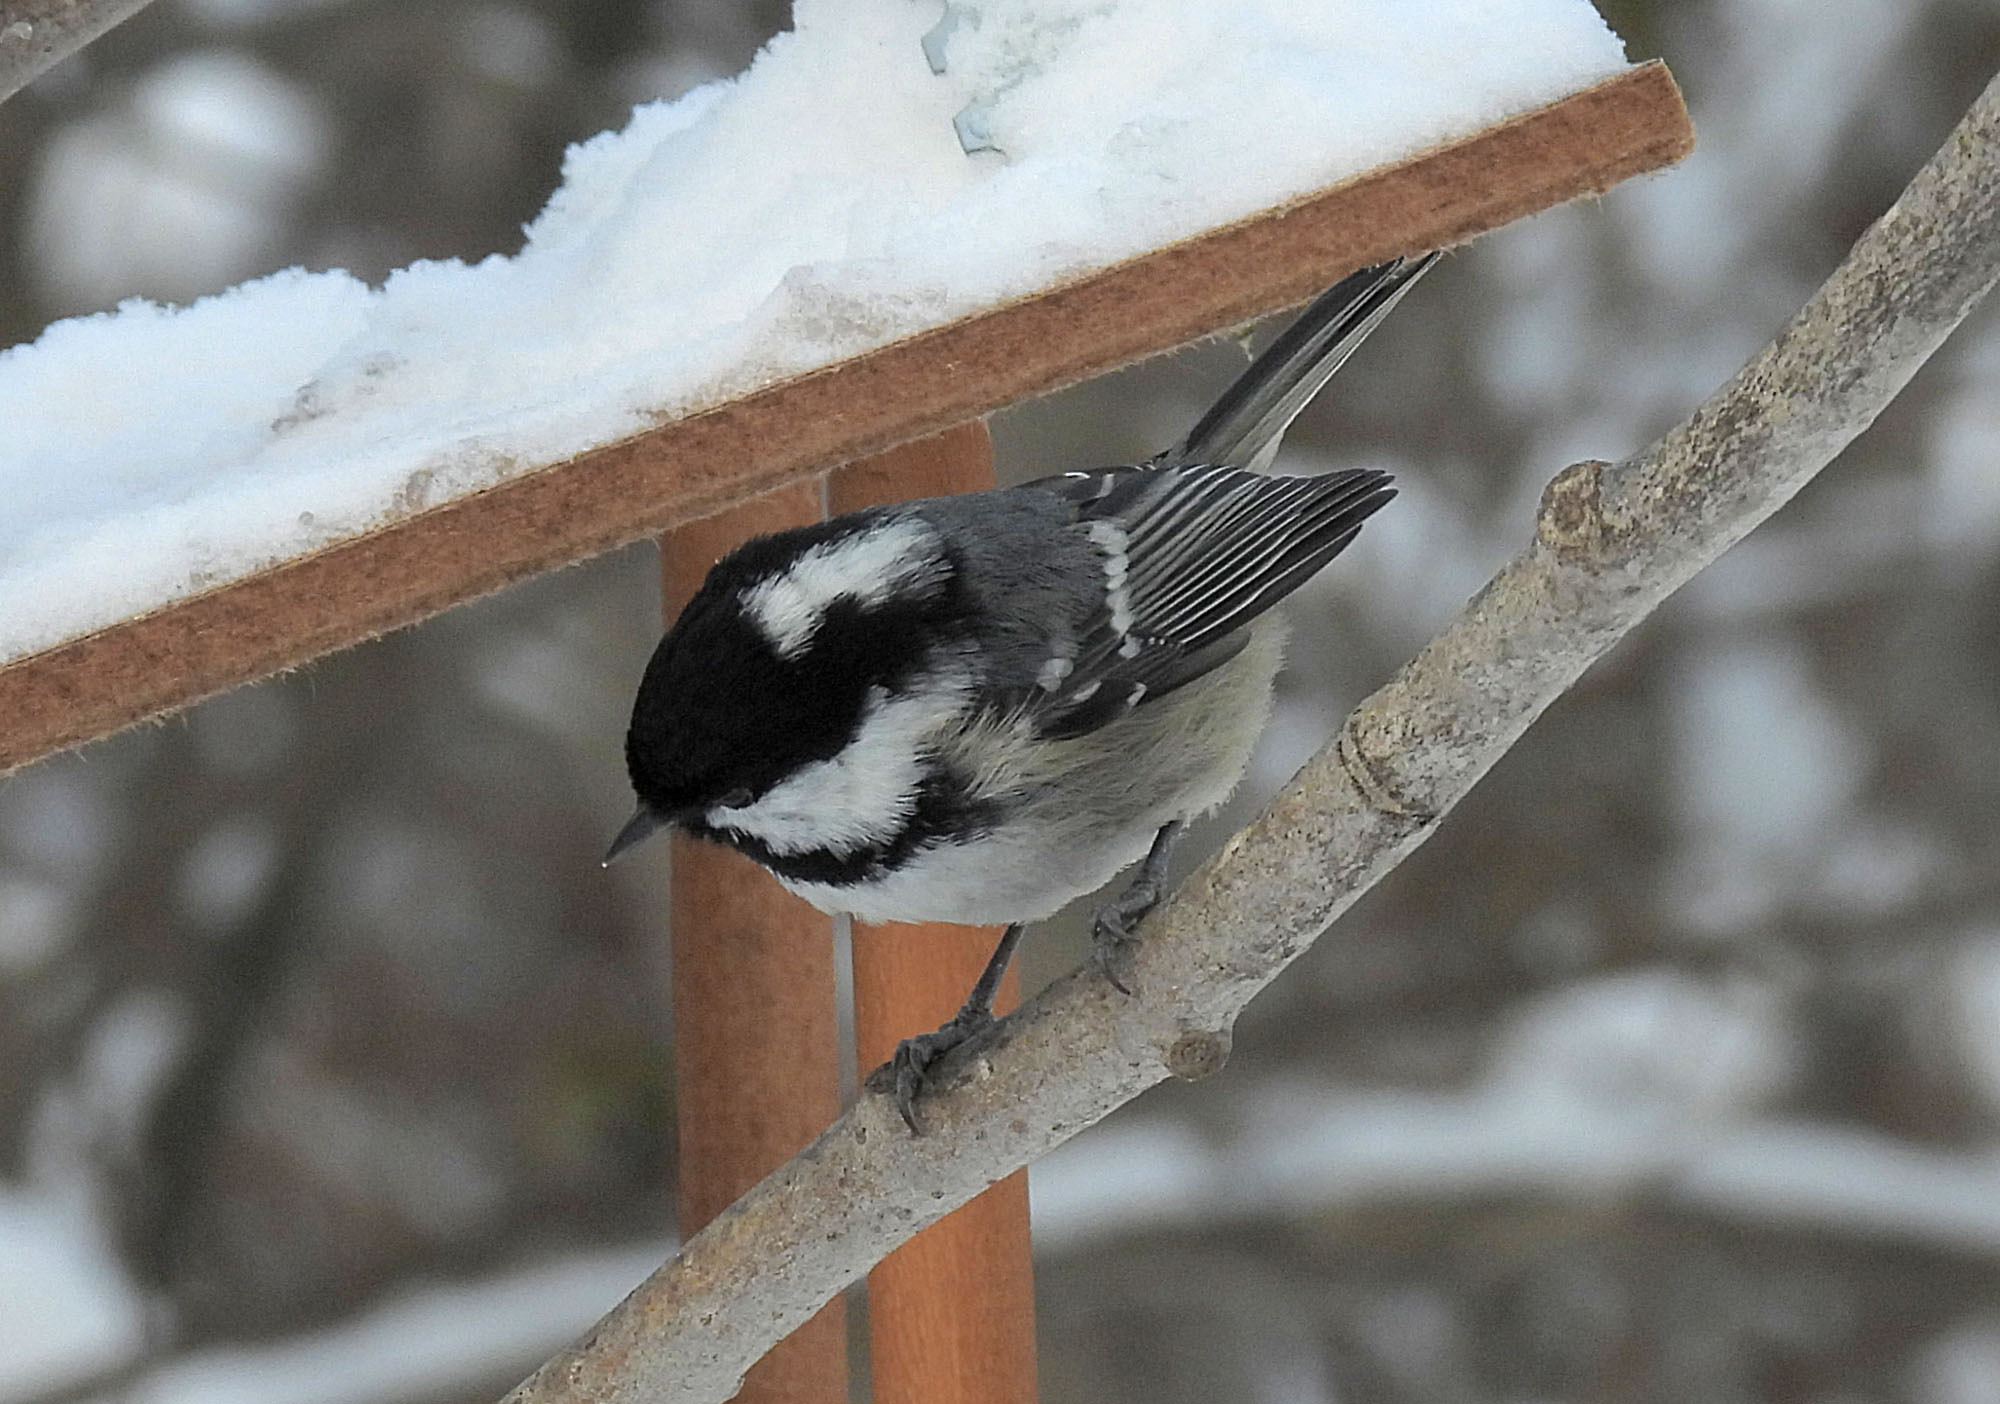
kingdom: Animalia
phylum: Chordata
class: Aves
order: Passeriformes
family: Paridae
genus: Periparus
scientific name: Periparus ater
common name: Coal tit
